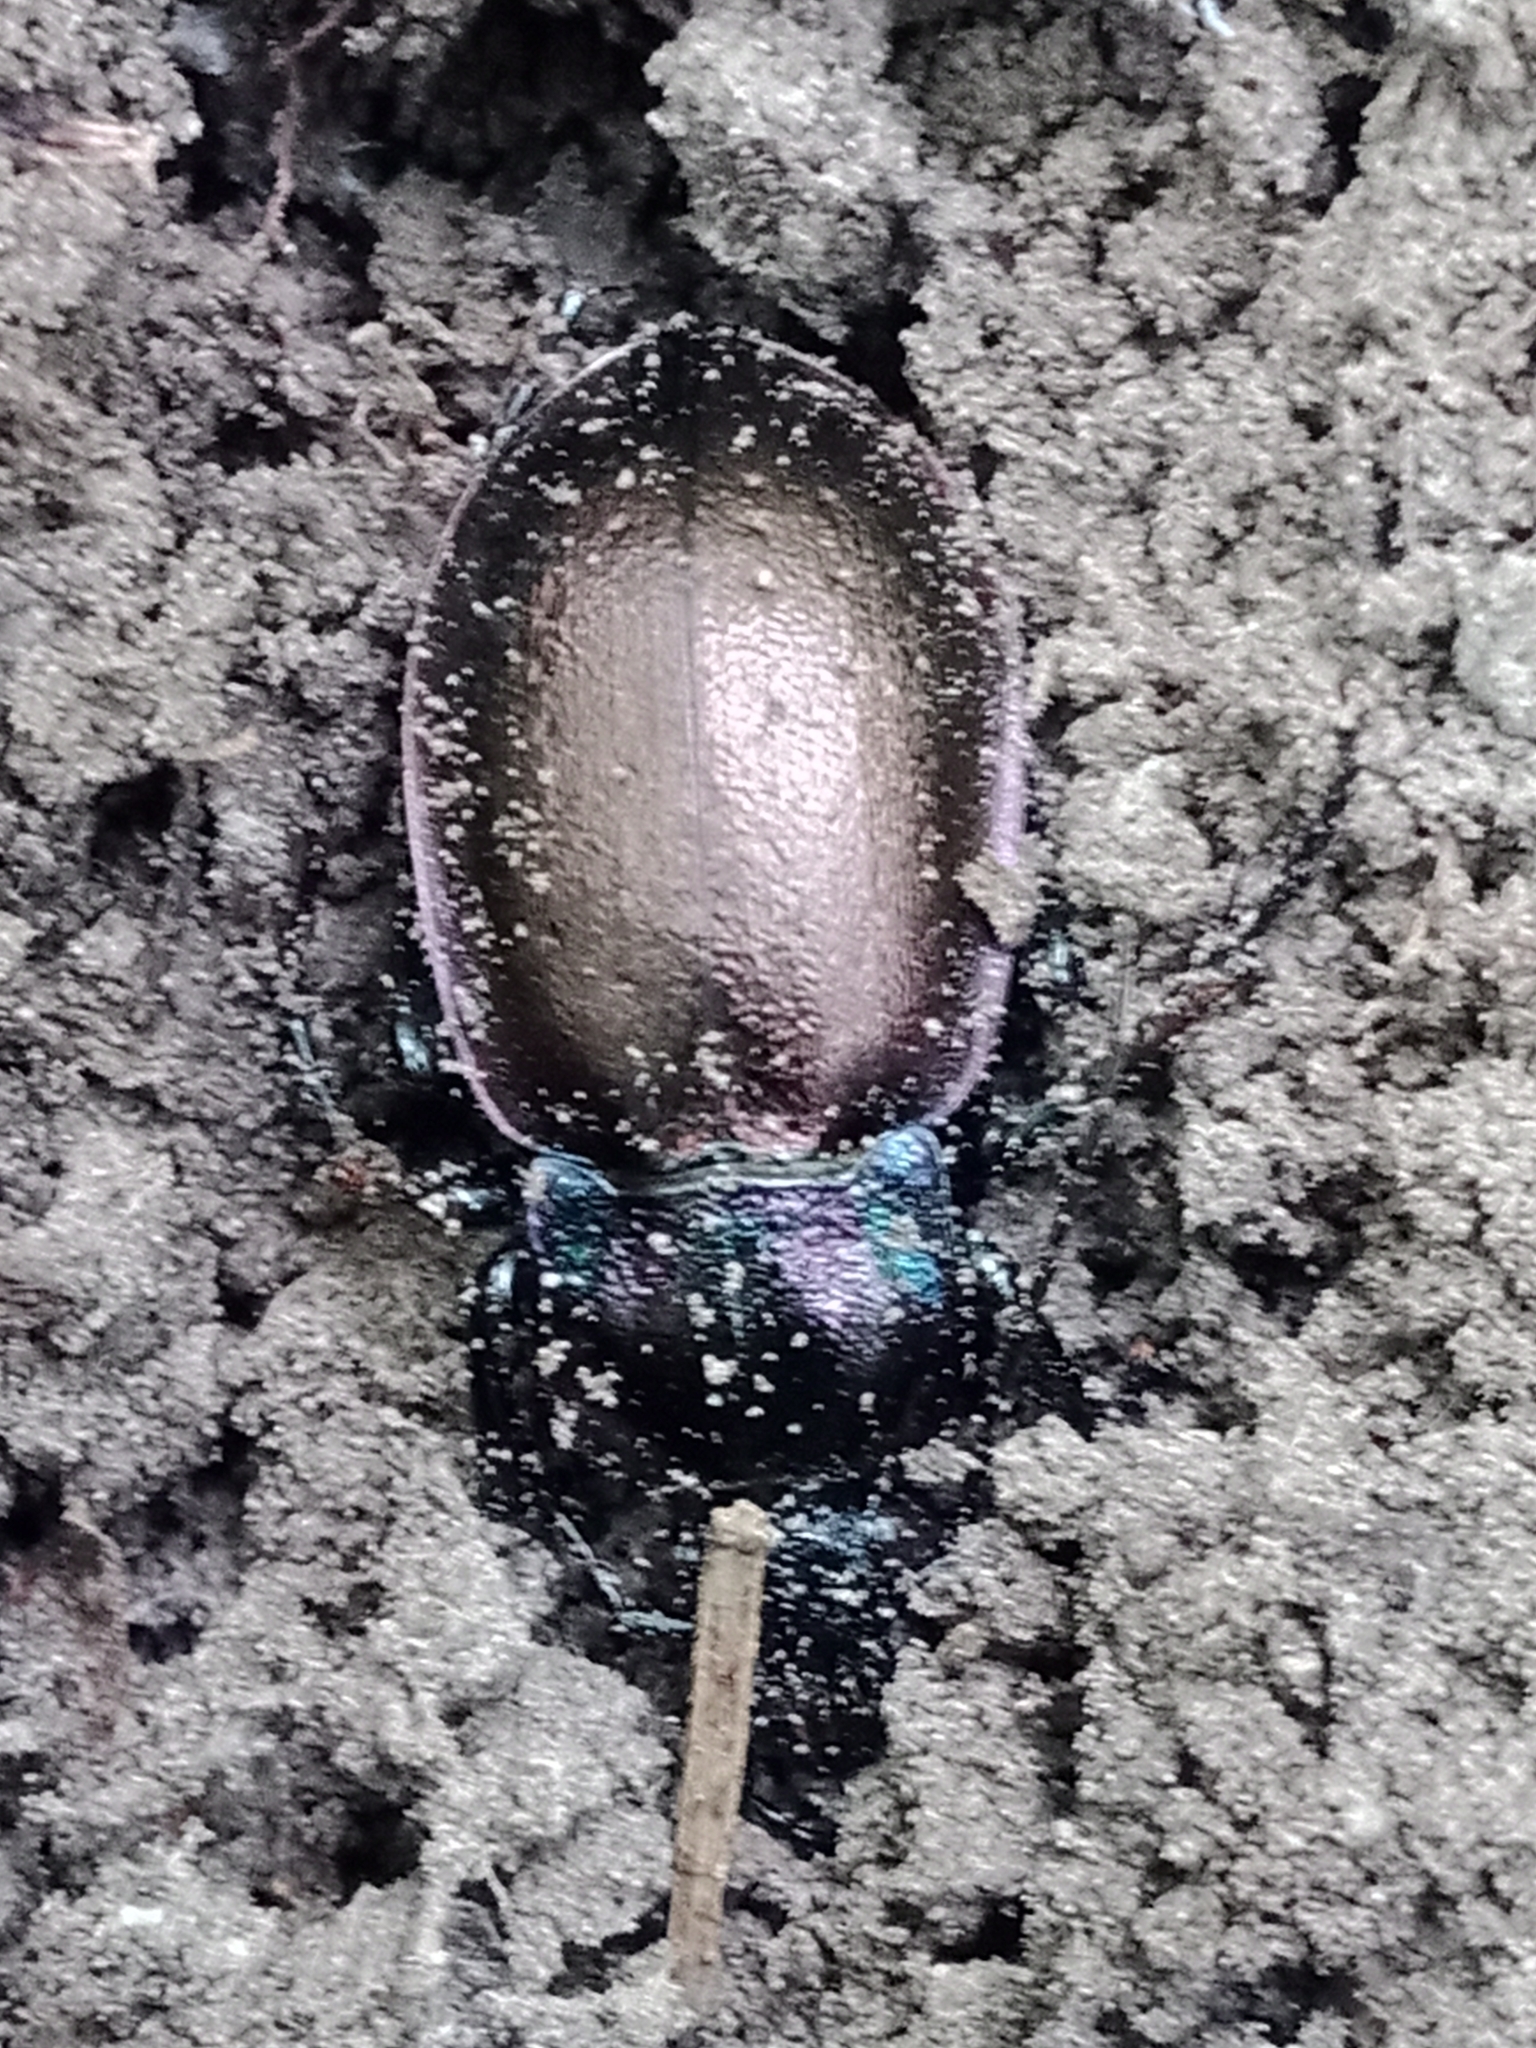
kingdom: Animalia
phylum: Arthropoda
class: Insecta
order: Coleoptera
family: Carabidae
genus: Carabus
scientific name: Carabus nemoralis
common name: European ground beetle
